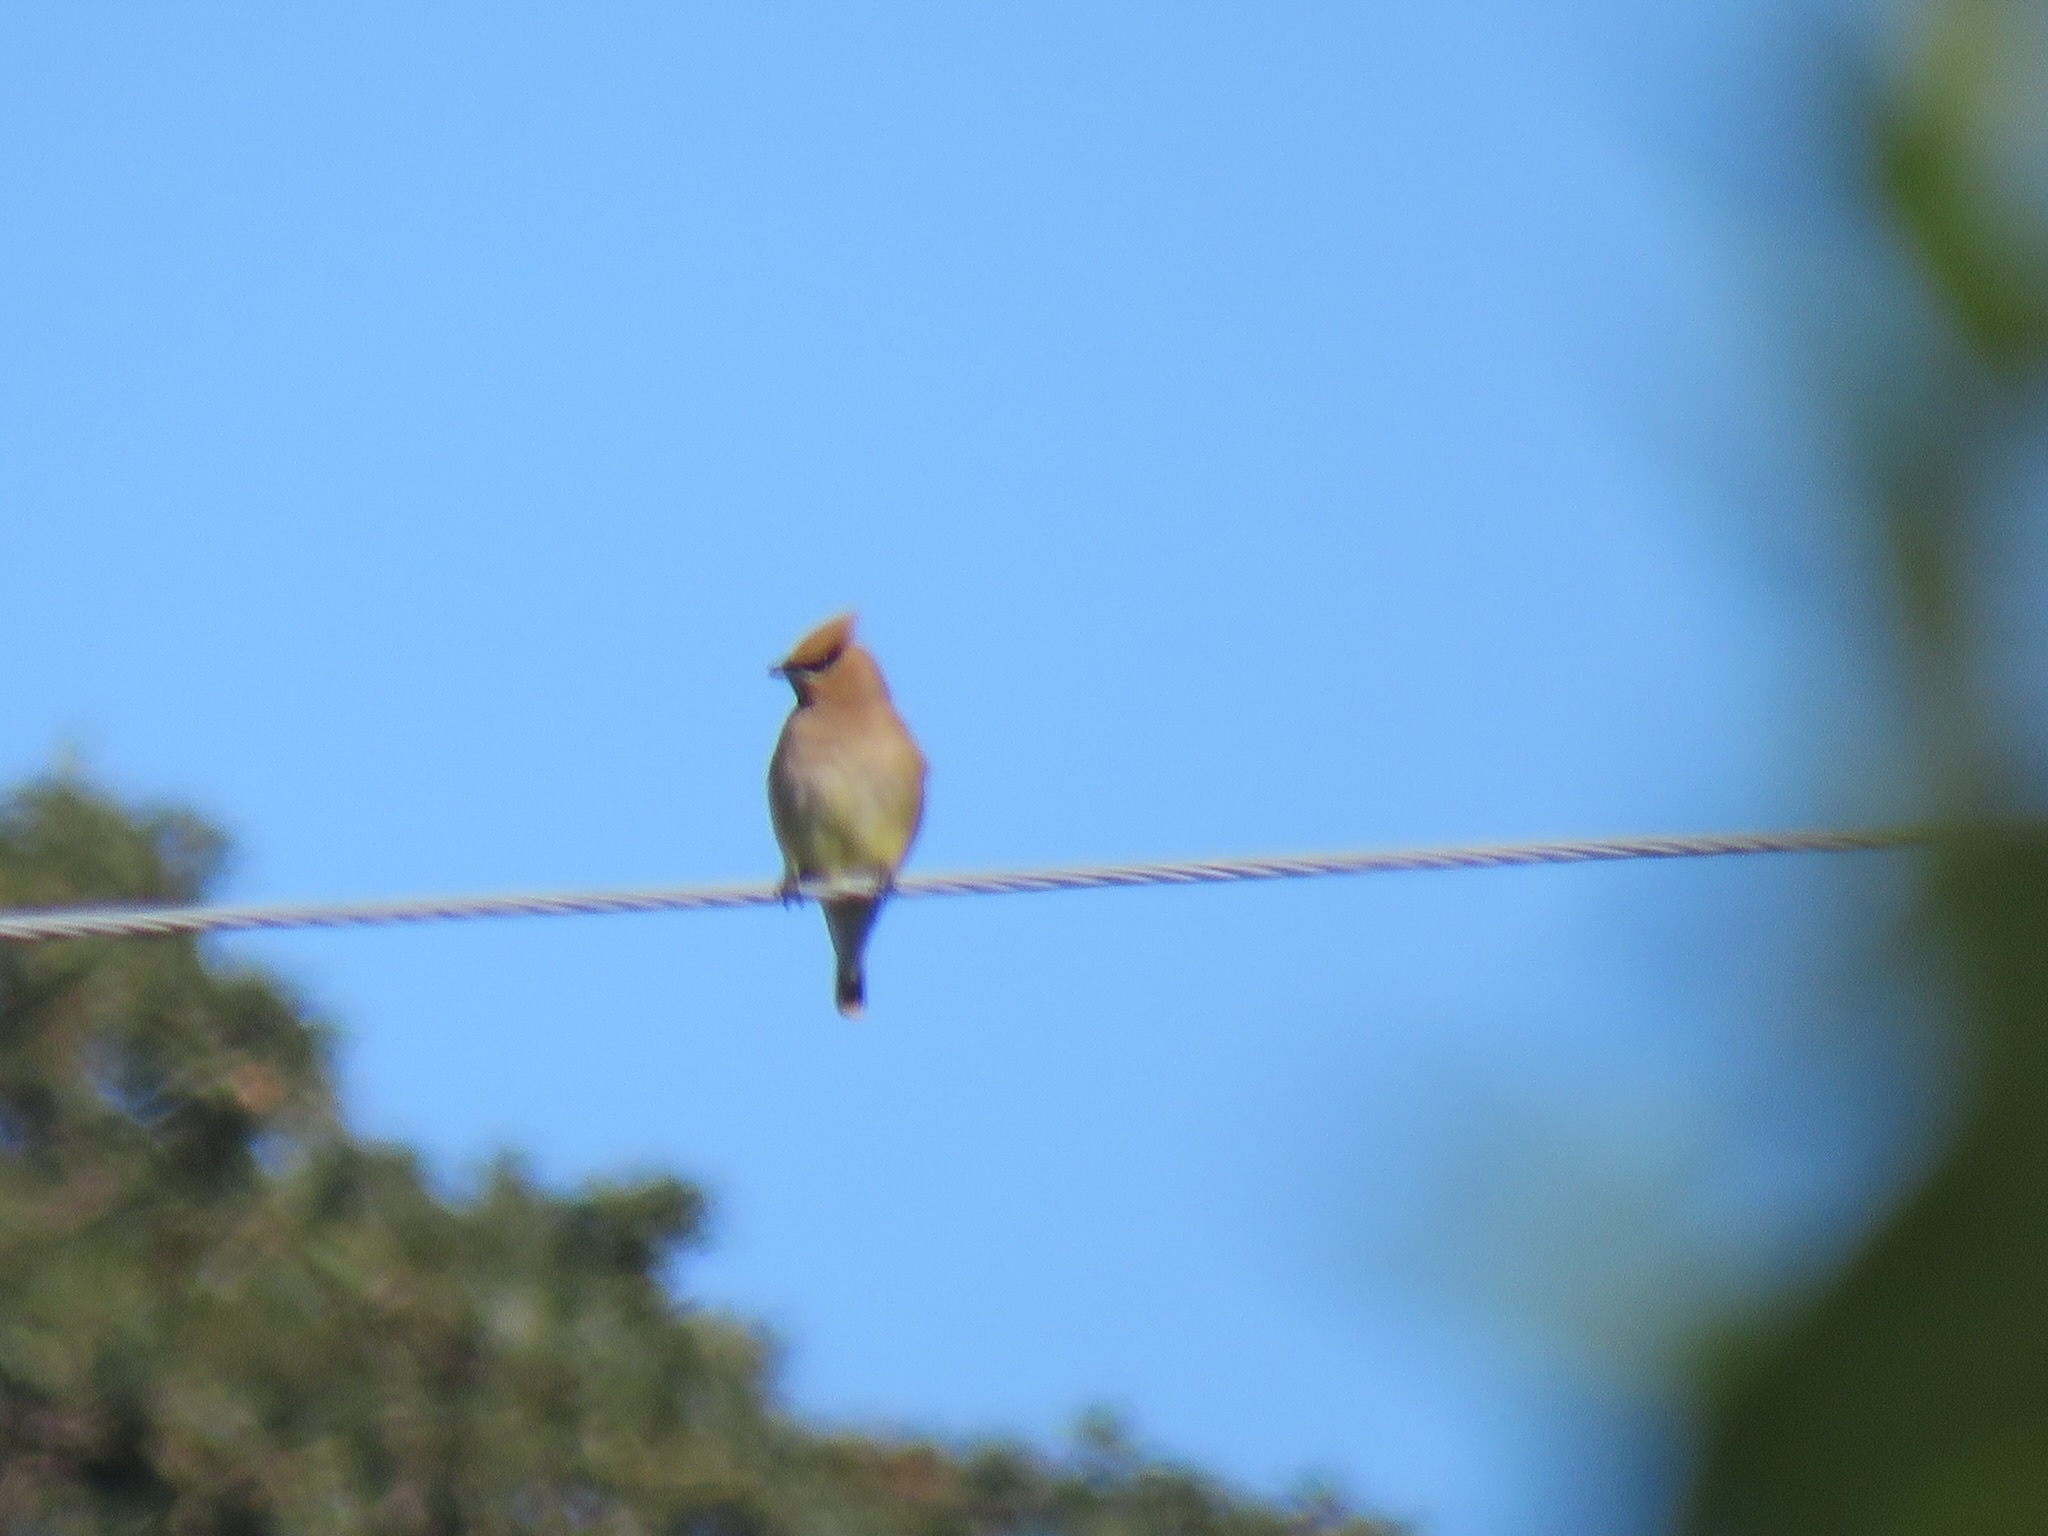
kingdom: Animalia
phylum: Chordata
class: Aves
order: Passeriformes
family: Bombycillidae
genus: Bombycilla
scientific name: Bombycilla cedrorum
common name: Cedar waxwing
